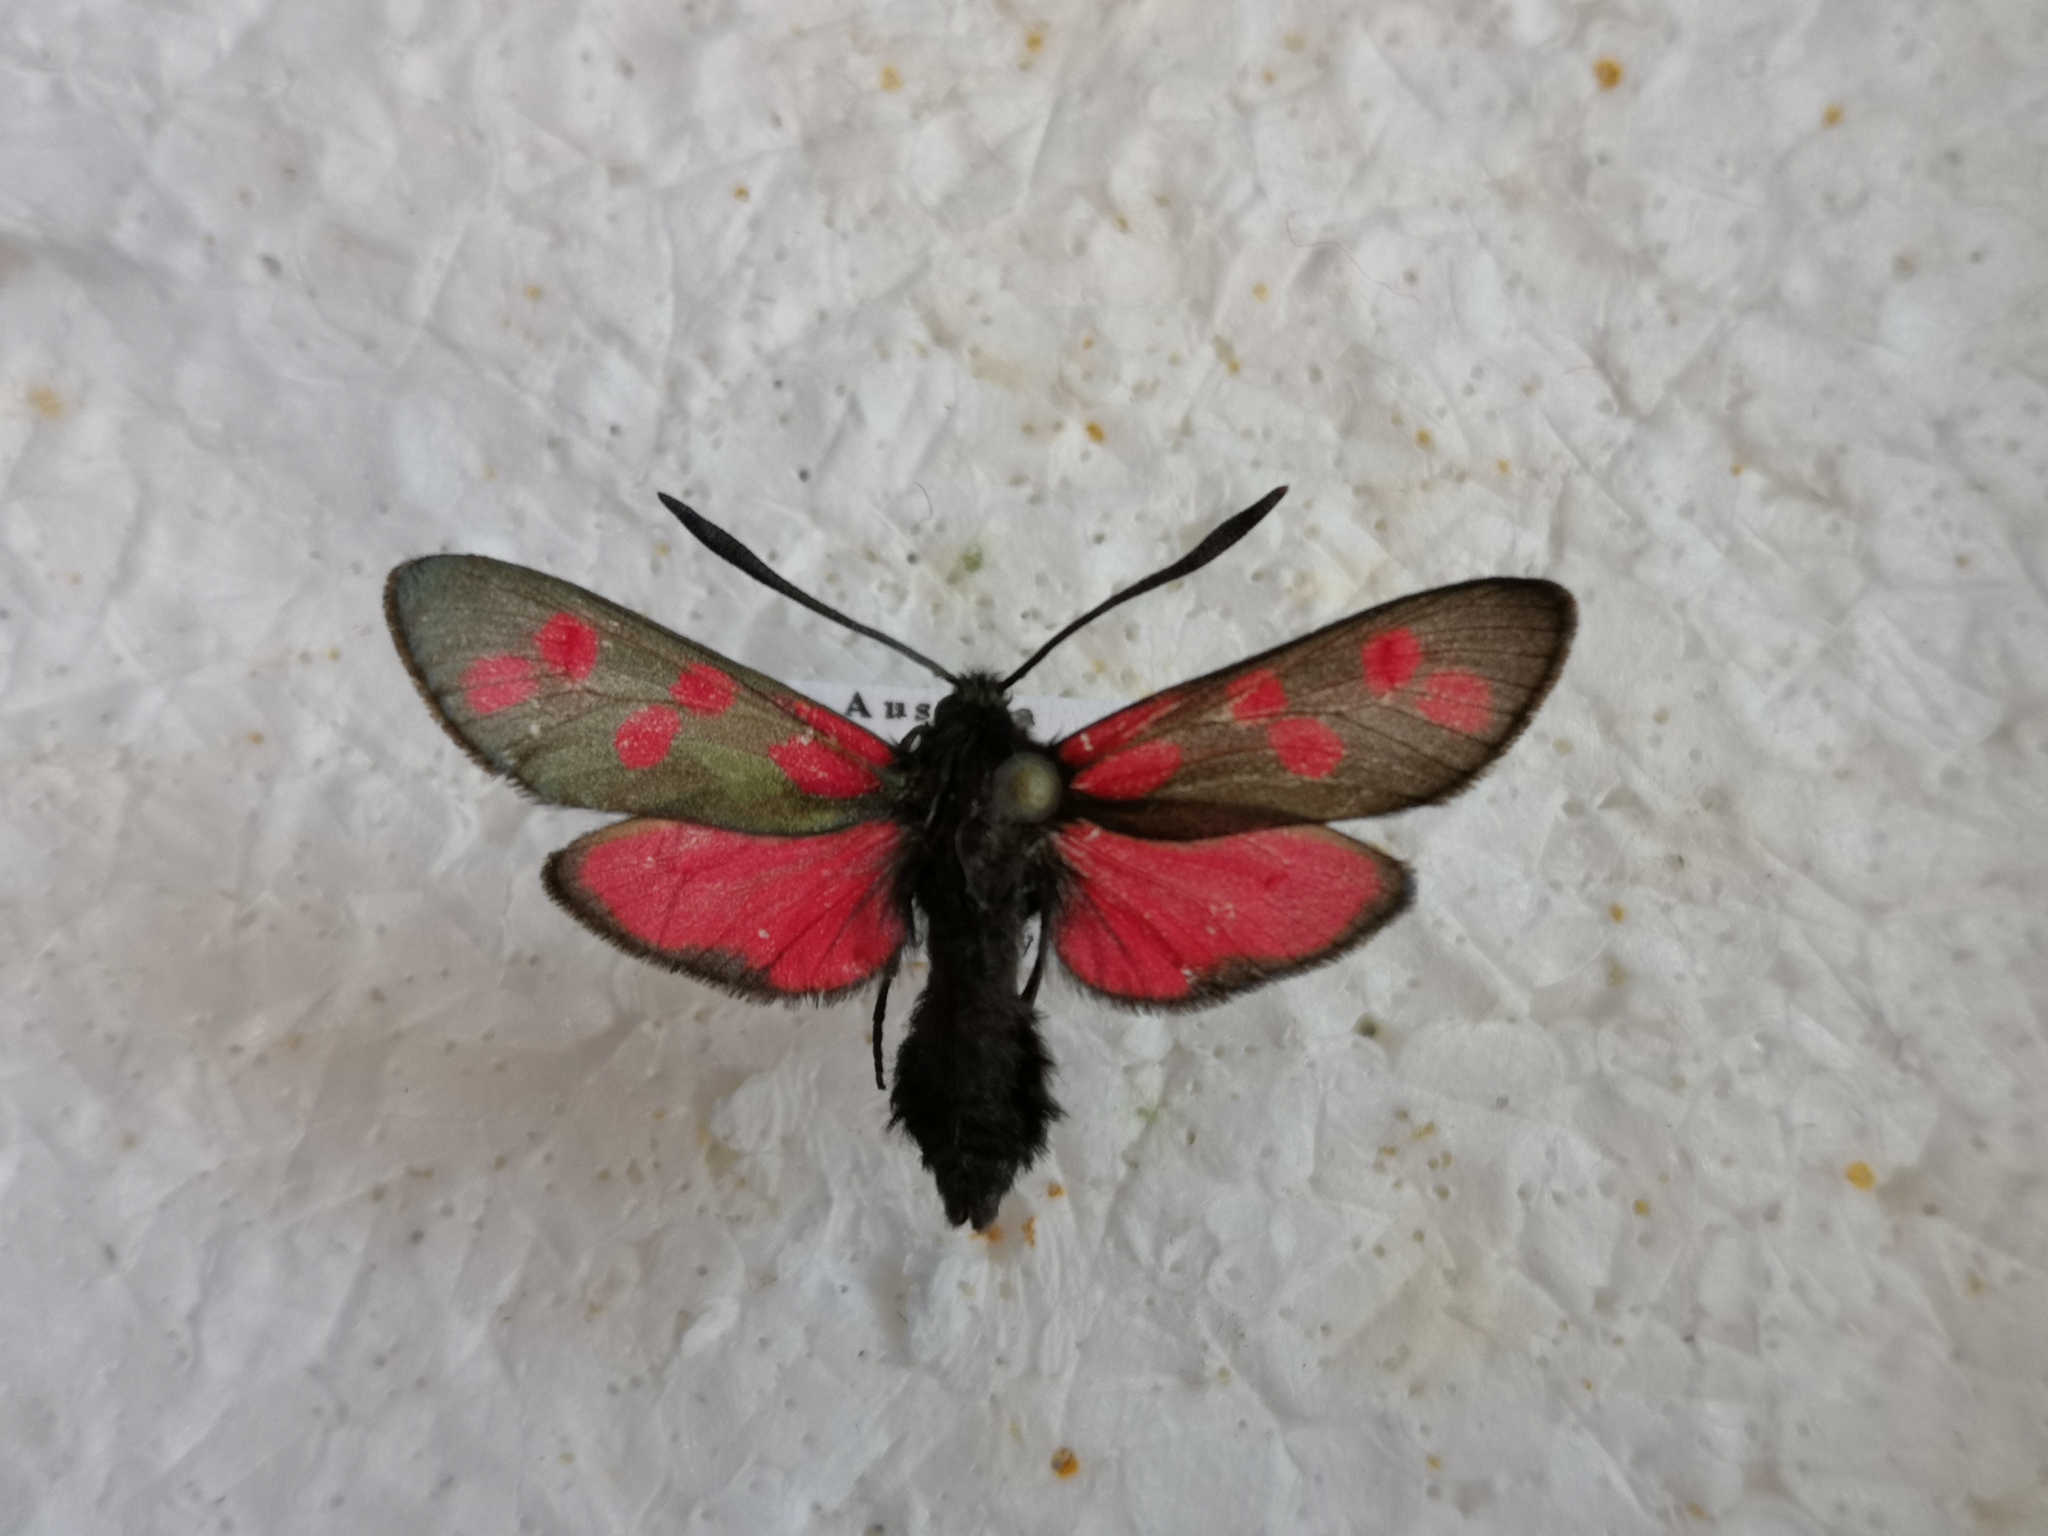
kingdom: Animalia
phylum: Arthropoda
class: Insecta
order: Lepidoptera
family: Zygaenidae
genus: Zygaena
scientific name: Zygaena filipendulae
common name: Six-spot burnet
